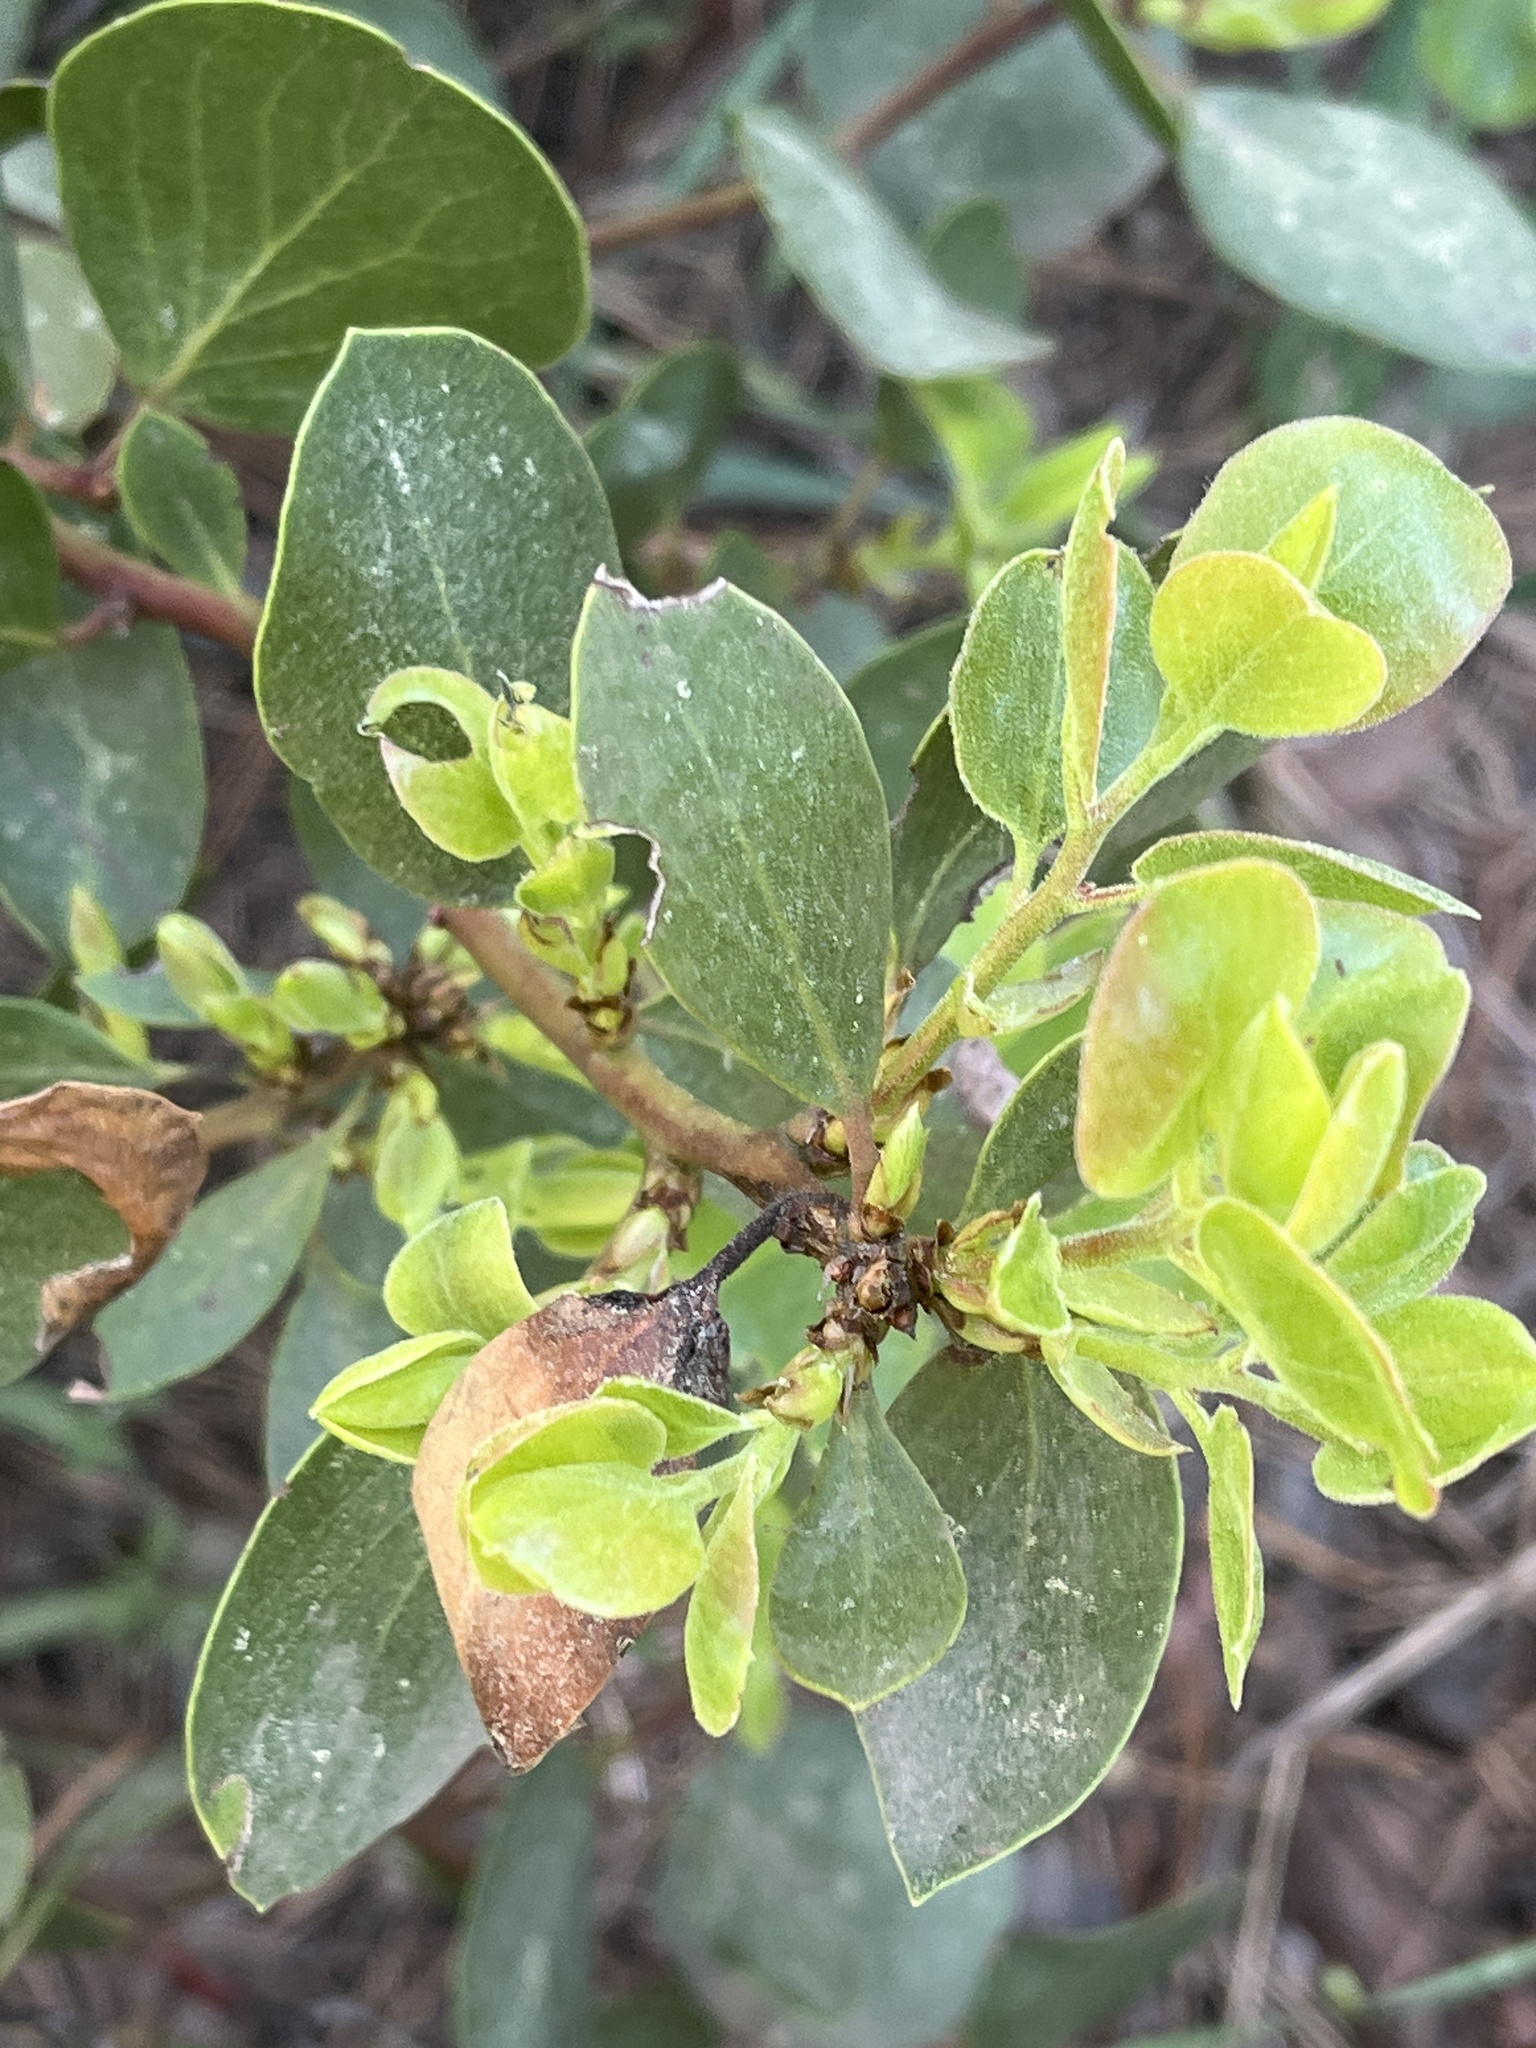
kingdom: Plantae
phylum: Tracheophyta
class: Magnoliopsida
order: Ericales
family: Ericaceae
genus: Arctostaphylos
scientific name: Arctostaphylos patula
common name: Green-leaf manzanita
